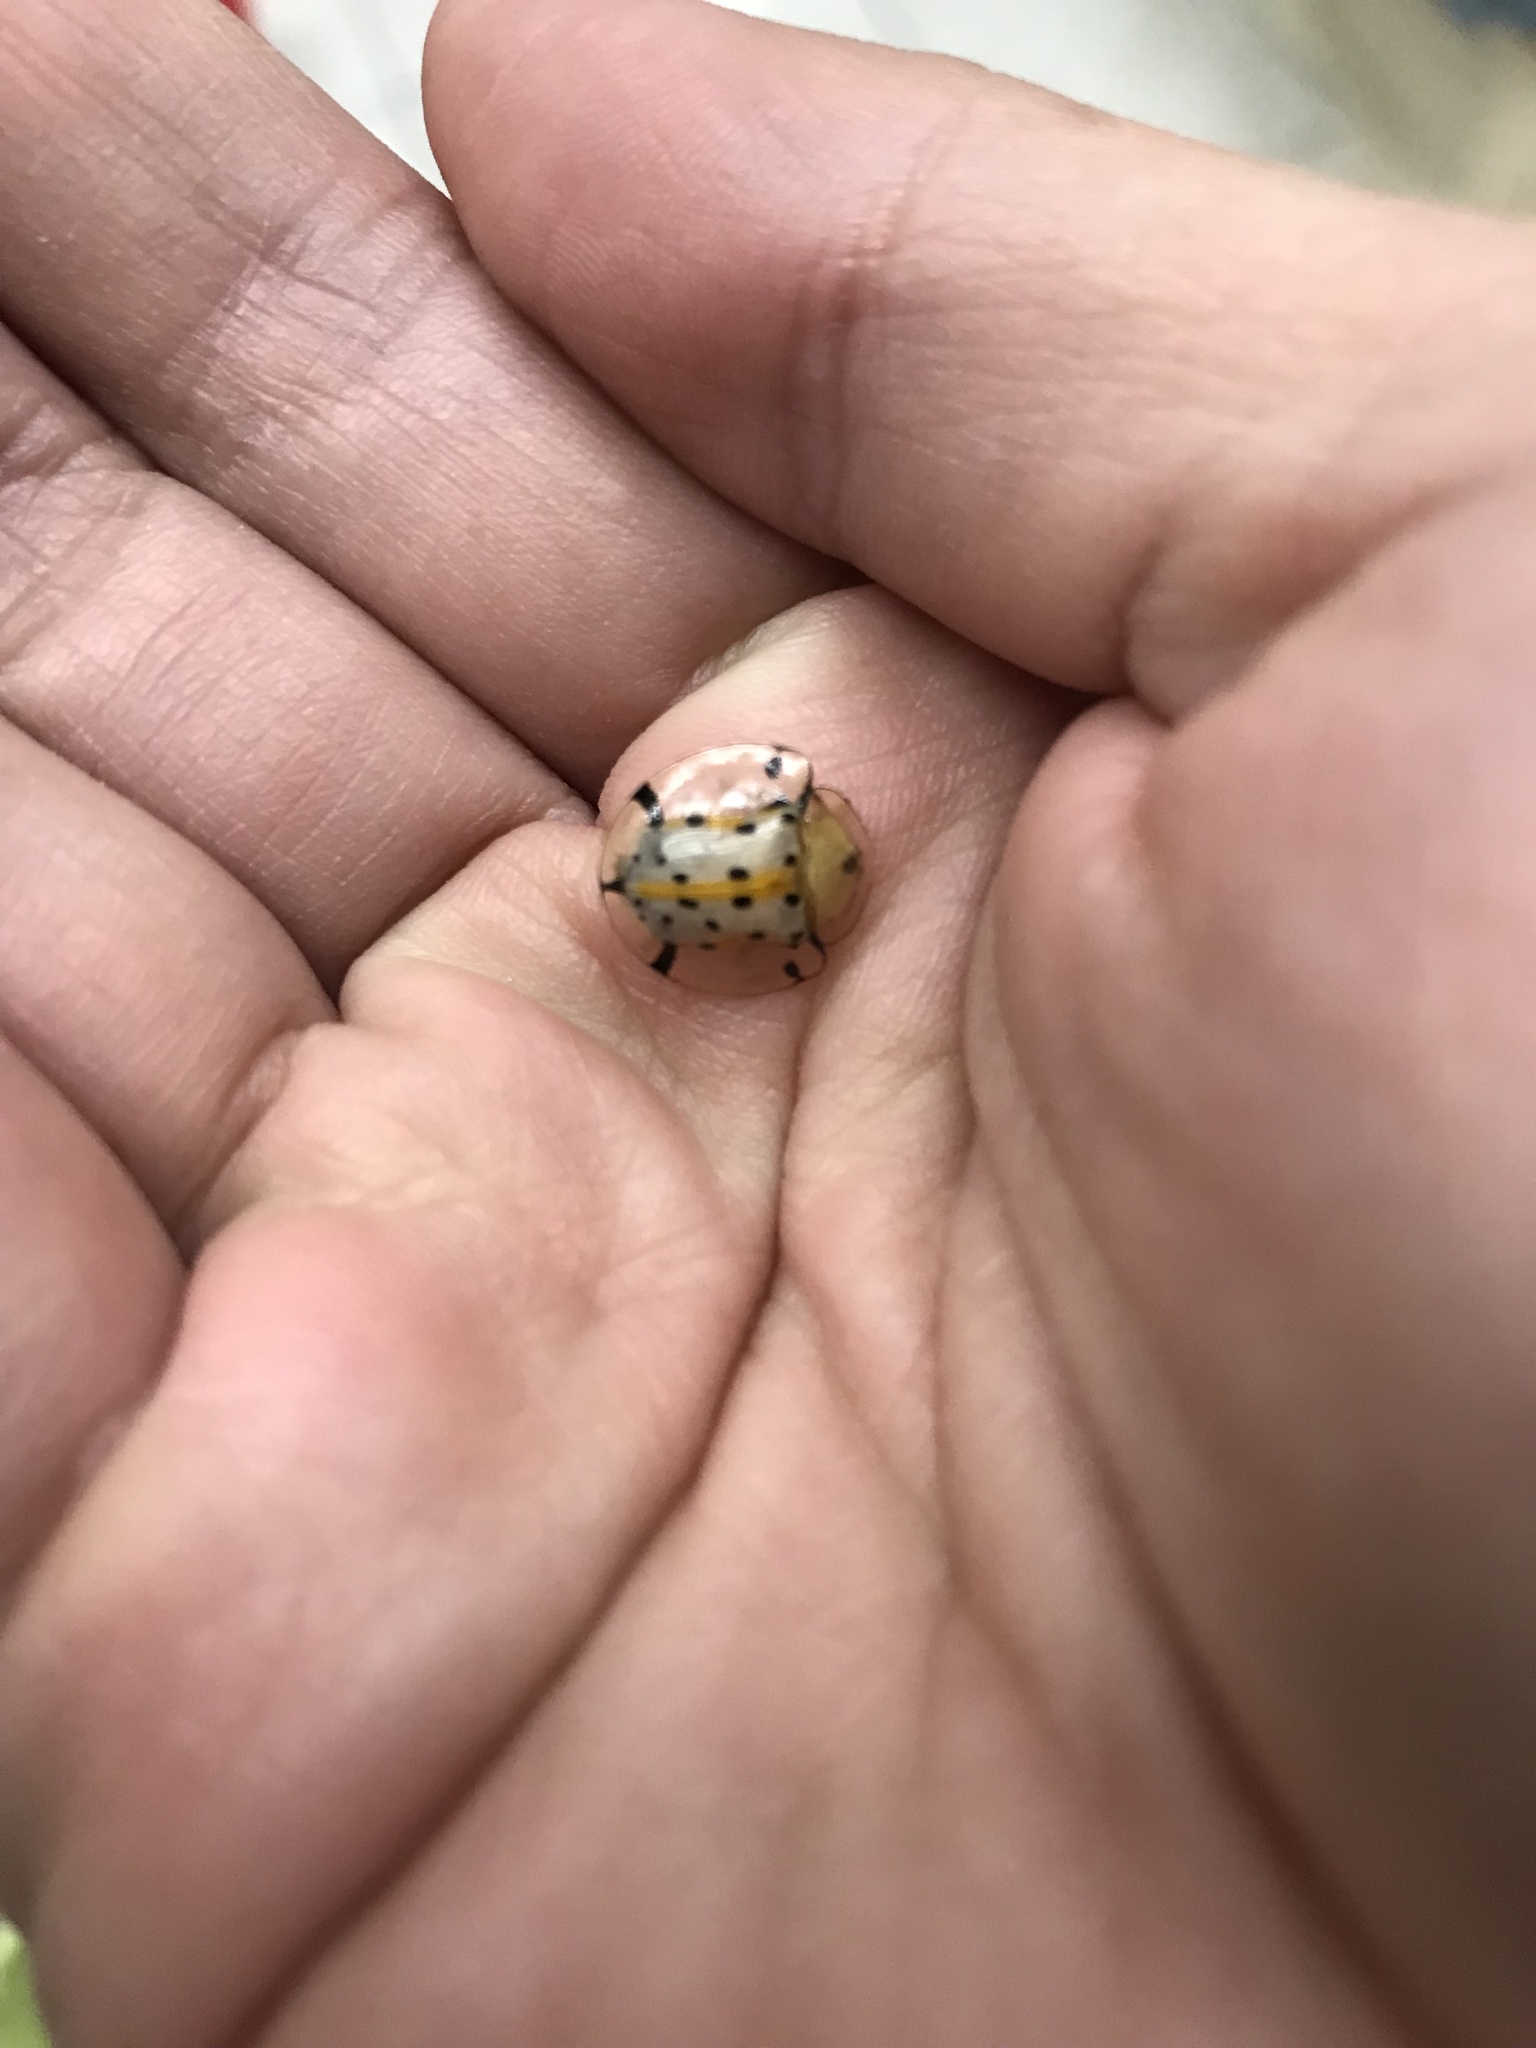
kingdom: Animalia
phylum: Arthropoda
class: Insecta
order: Coleoptera
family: Chrysomelidae
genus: Aspidimorpha
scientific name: Aspidimorpha miliaris
